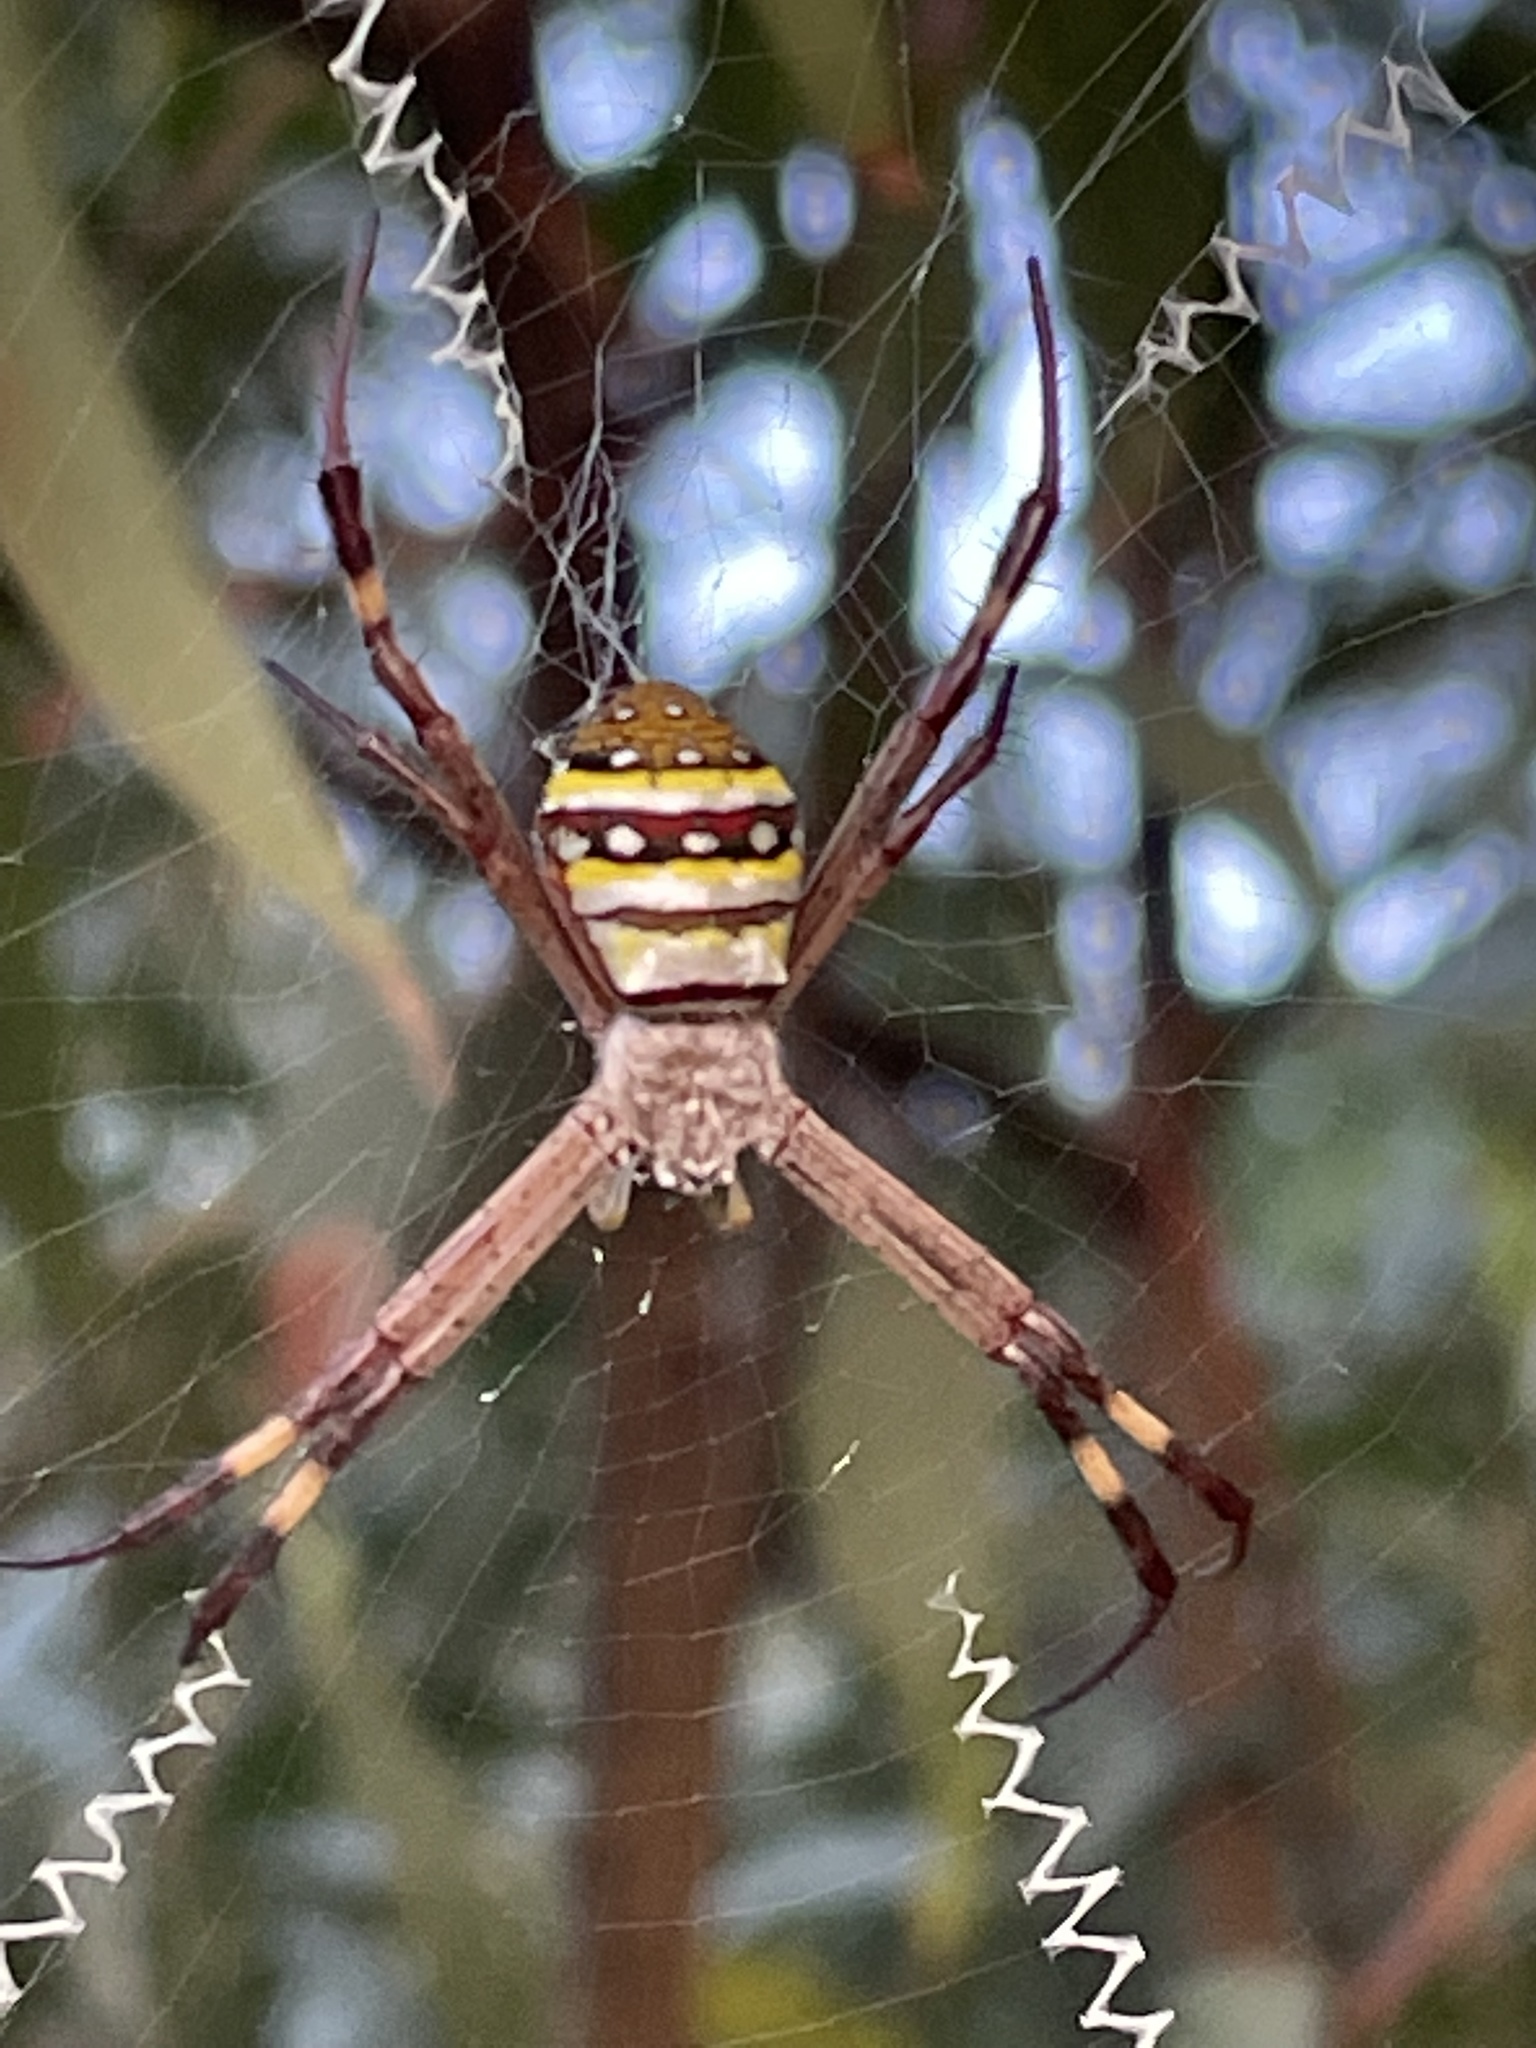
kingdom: Animalia
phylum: Arthropoda
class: Arachnida
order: Araneae
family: Araneidae
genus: Argiope
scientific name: Argiope keyserlingi
